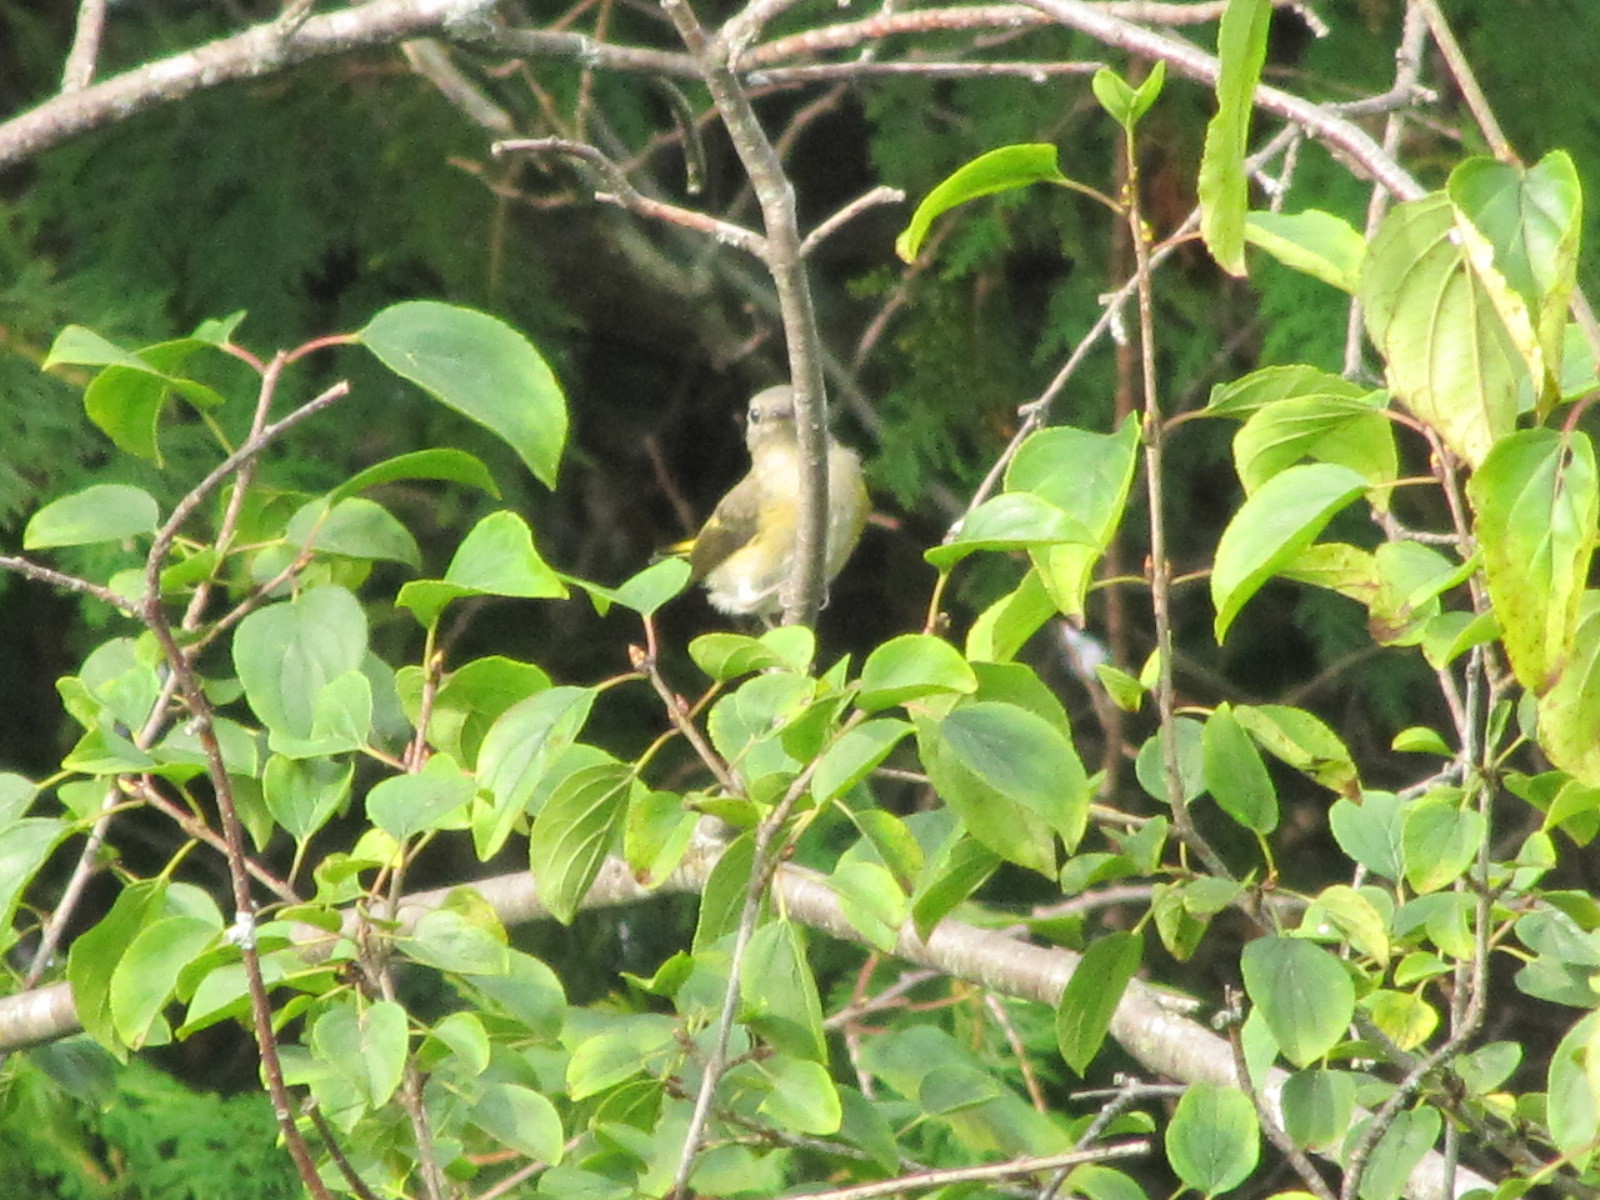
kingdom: Animalia
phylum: Chordata
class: Aves
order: Passeriformes
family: Parulidae
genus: Setophaga
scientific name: Setophaga ruticilla
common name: American redstart
